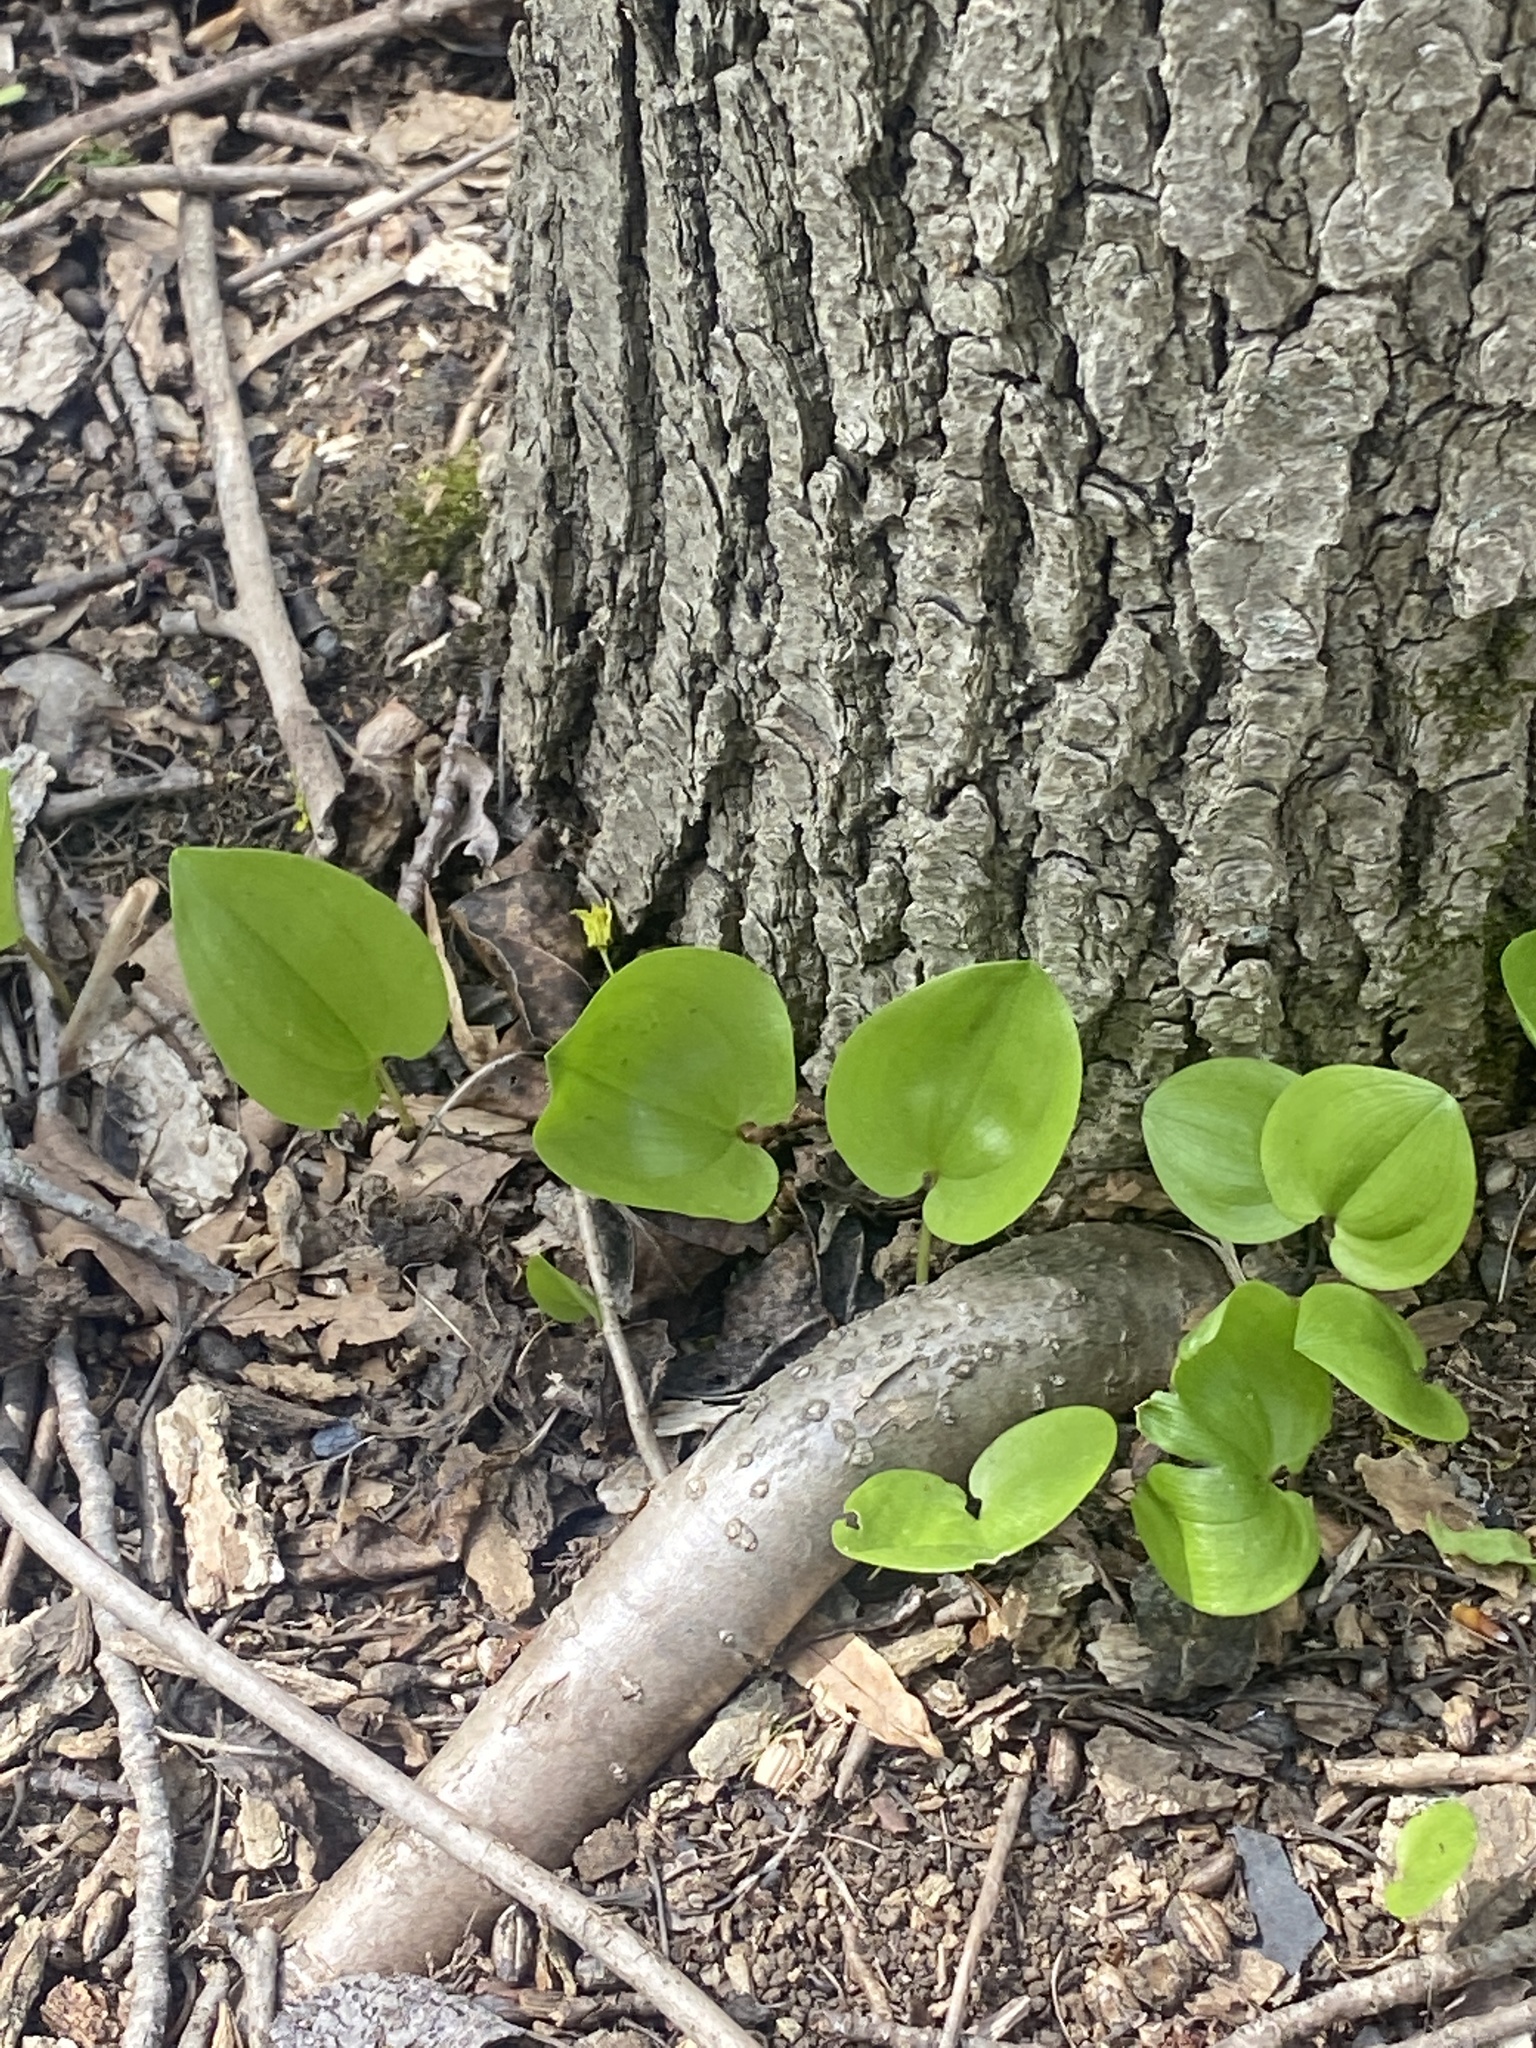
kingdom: Plantae
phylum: Tracheophyta
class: Liliopsida
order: Asparagales
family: Asparagaceae
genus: Maianthemum
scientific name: Maianthemum canadense
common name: False lily-of-the-valley
